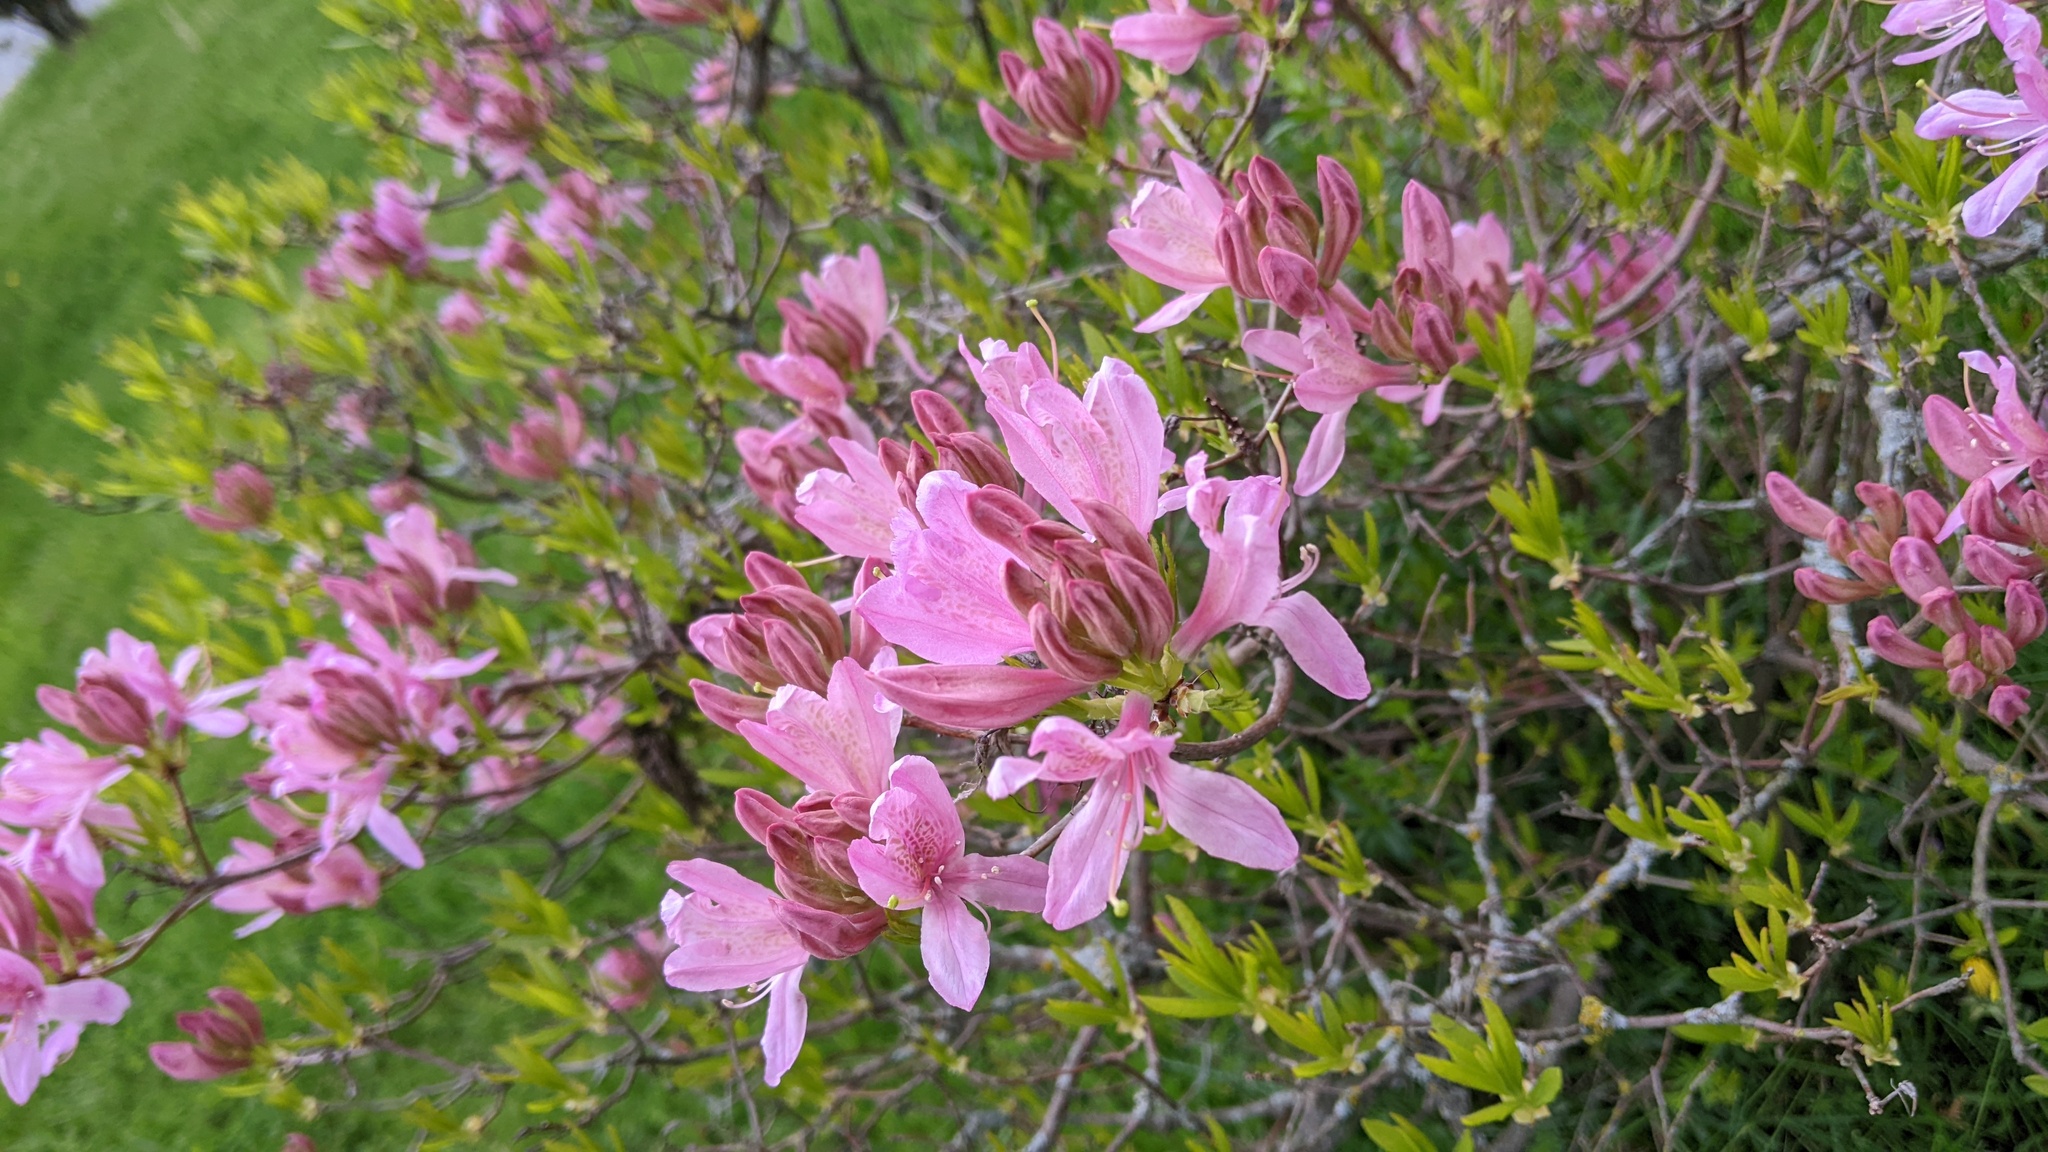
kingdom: Plantae
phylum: Tracheophyta
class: Magnoliopsida
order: Ericales
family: Ericaceae
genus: Rhododendron
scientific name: Rhododendron canadense
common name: Rhodora
